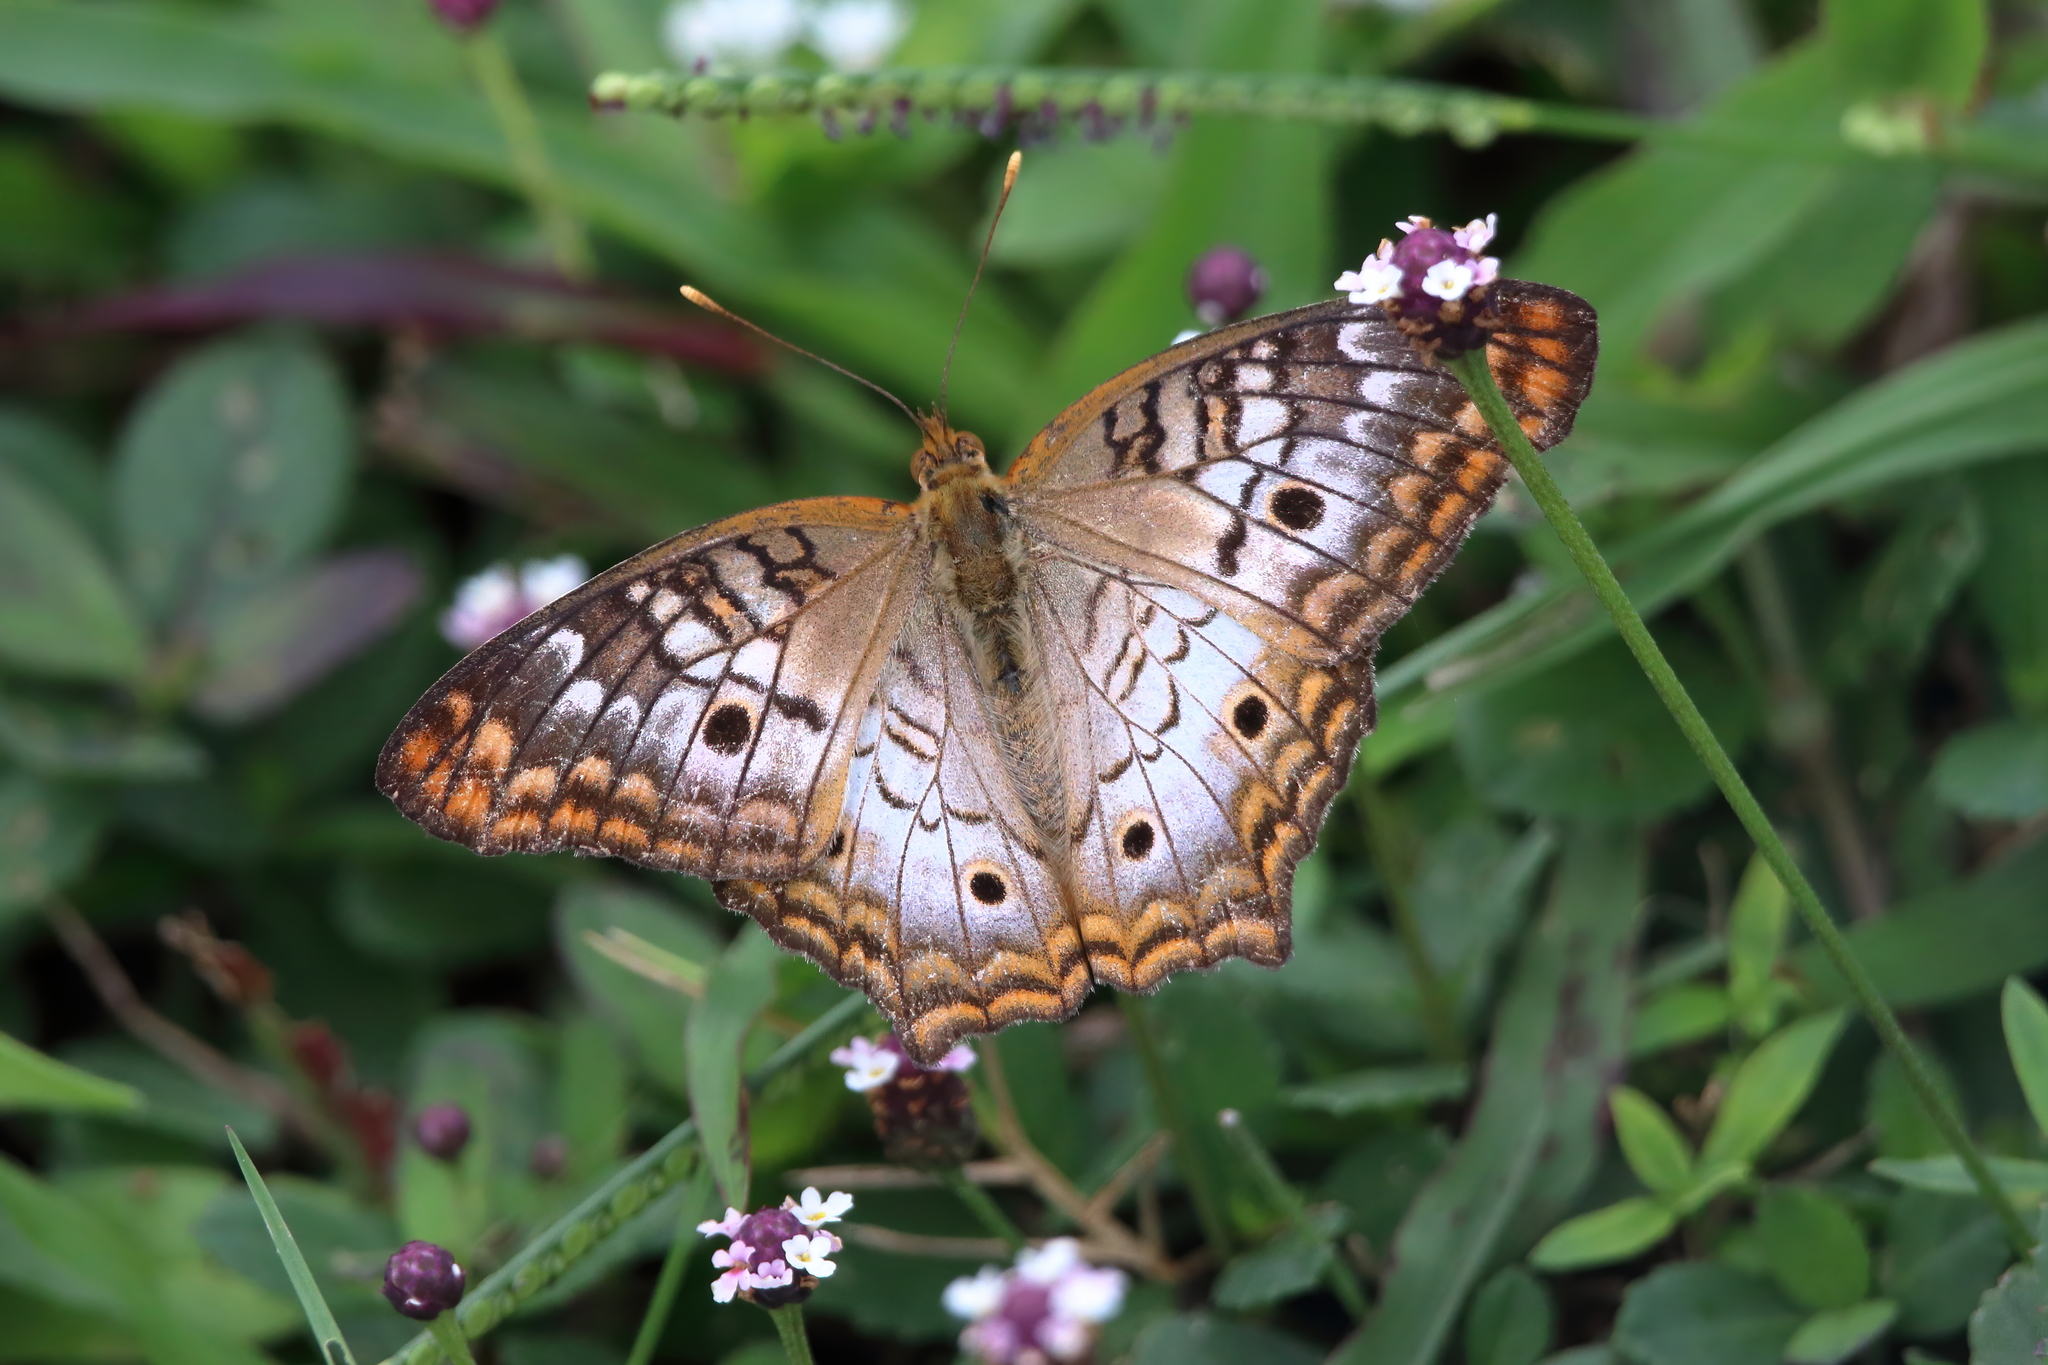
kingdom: Animalia
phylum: Arthropoda
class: Insecta
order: Lepidoptera
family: Nymphalidae
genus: Anartia
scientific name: Anartia jatrophae
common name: White peacock
